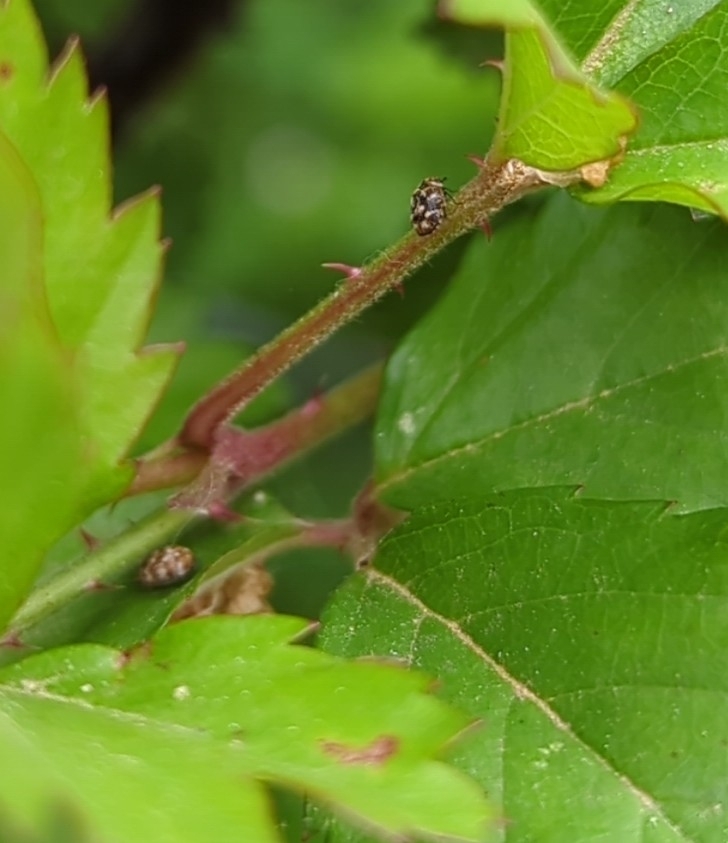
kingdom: Animalia
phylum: Arthropoda
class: Insecta
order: Coleoptera
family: Dermestidae
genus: Anthrenus
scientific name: Anthrenus verbasci
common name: Varied carpet beetle
